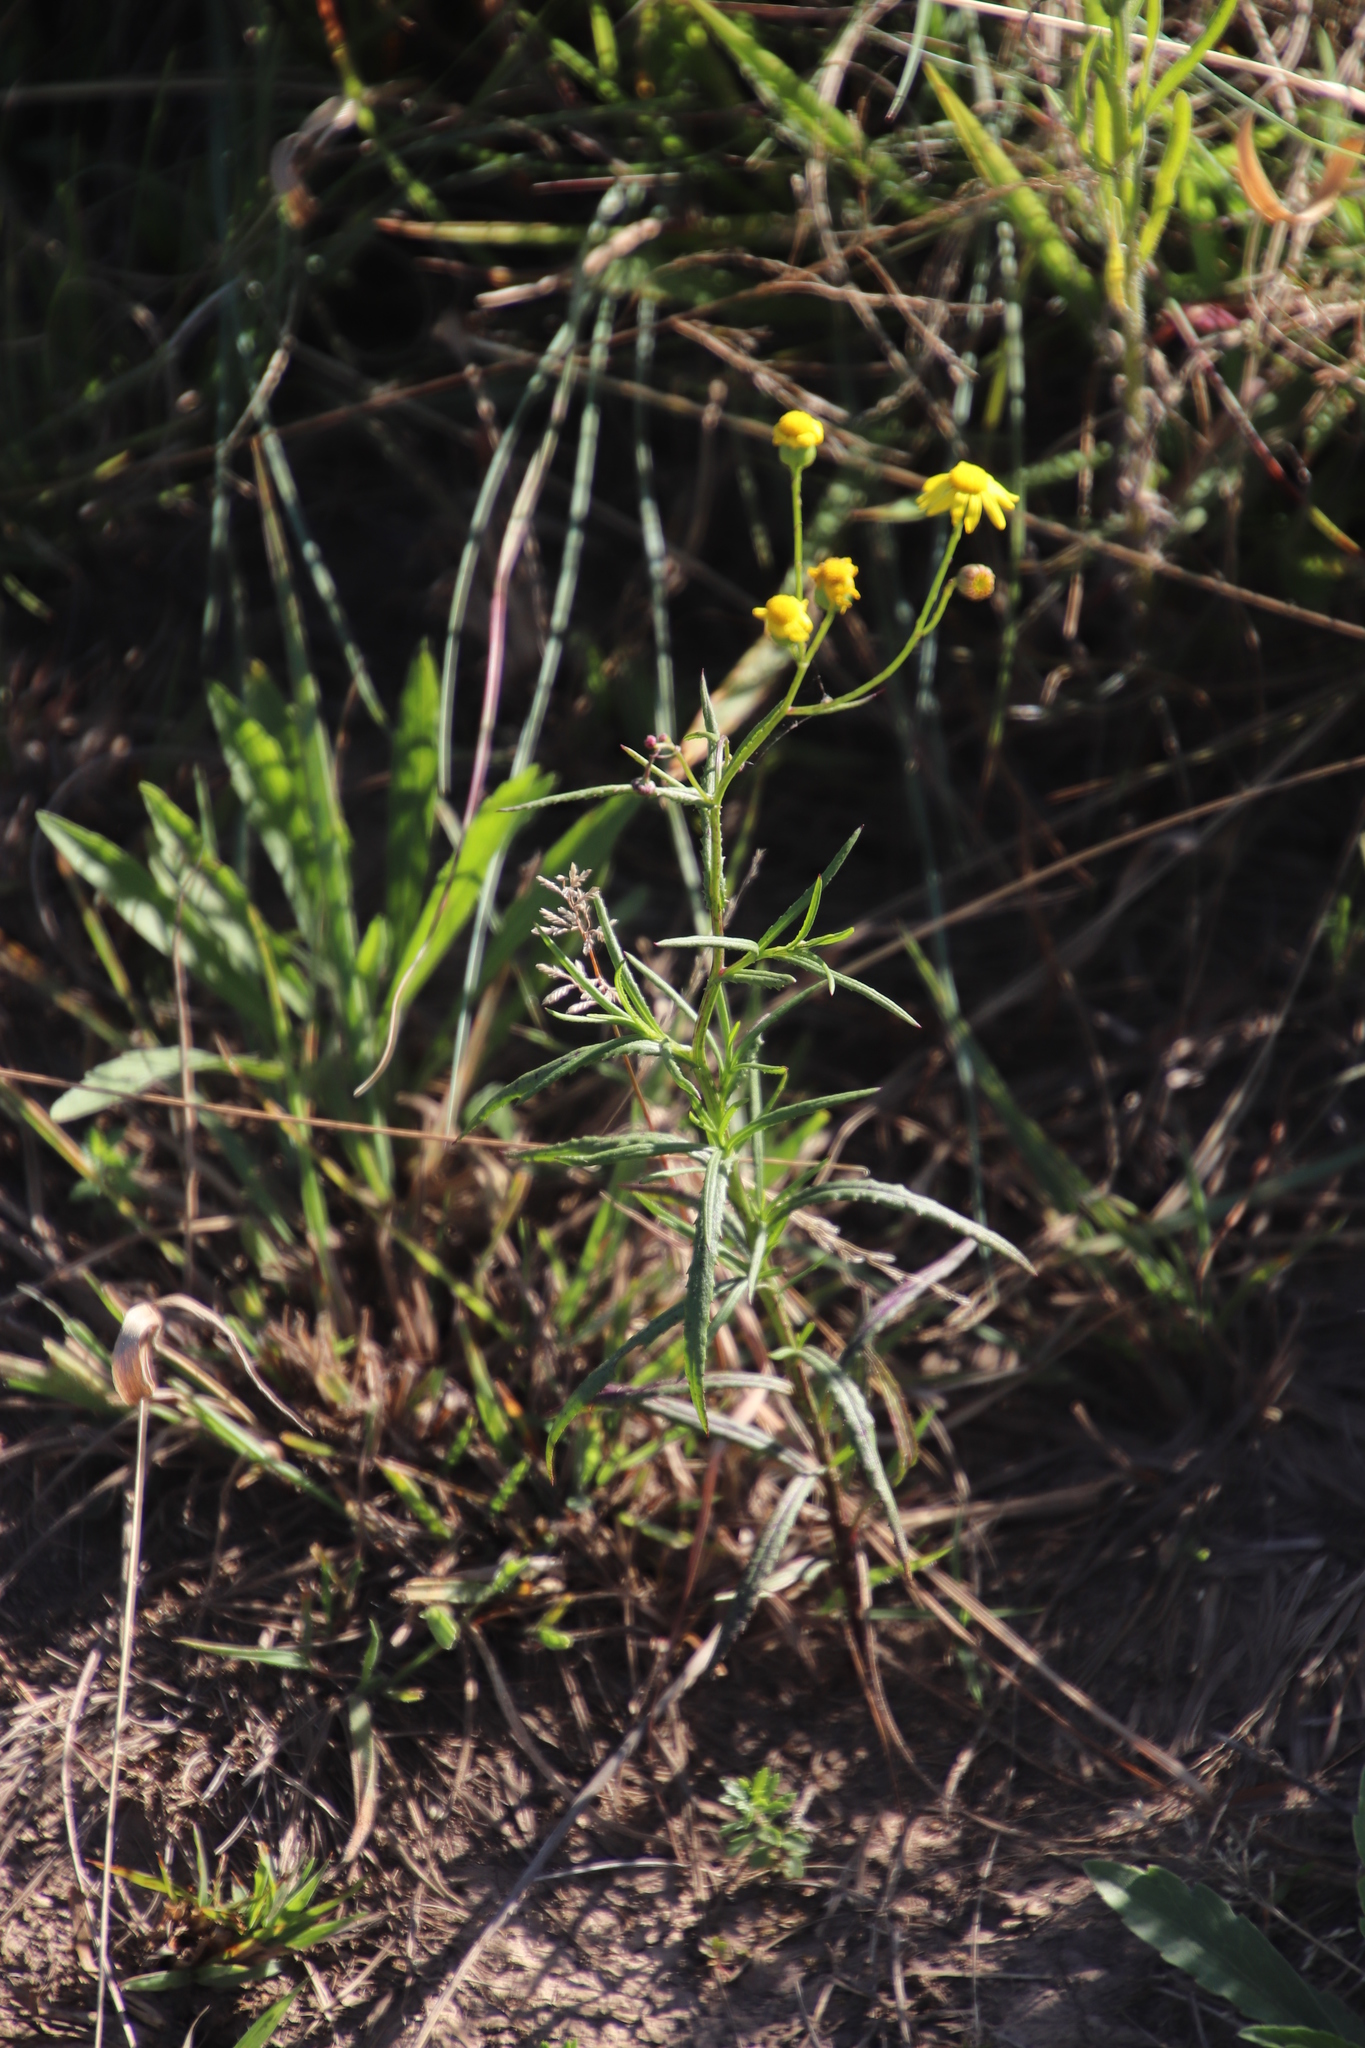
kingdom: Plantae
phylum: Tracheophyta
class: Magnoliopsida
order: Asterales
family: Asteraceae
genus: Senecio
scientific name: Senecio bupleuroides
